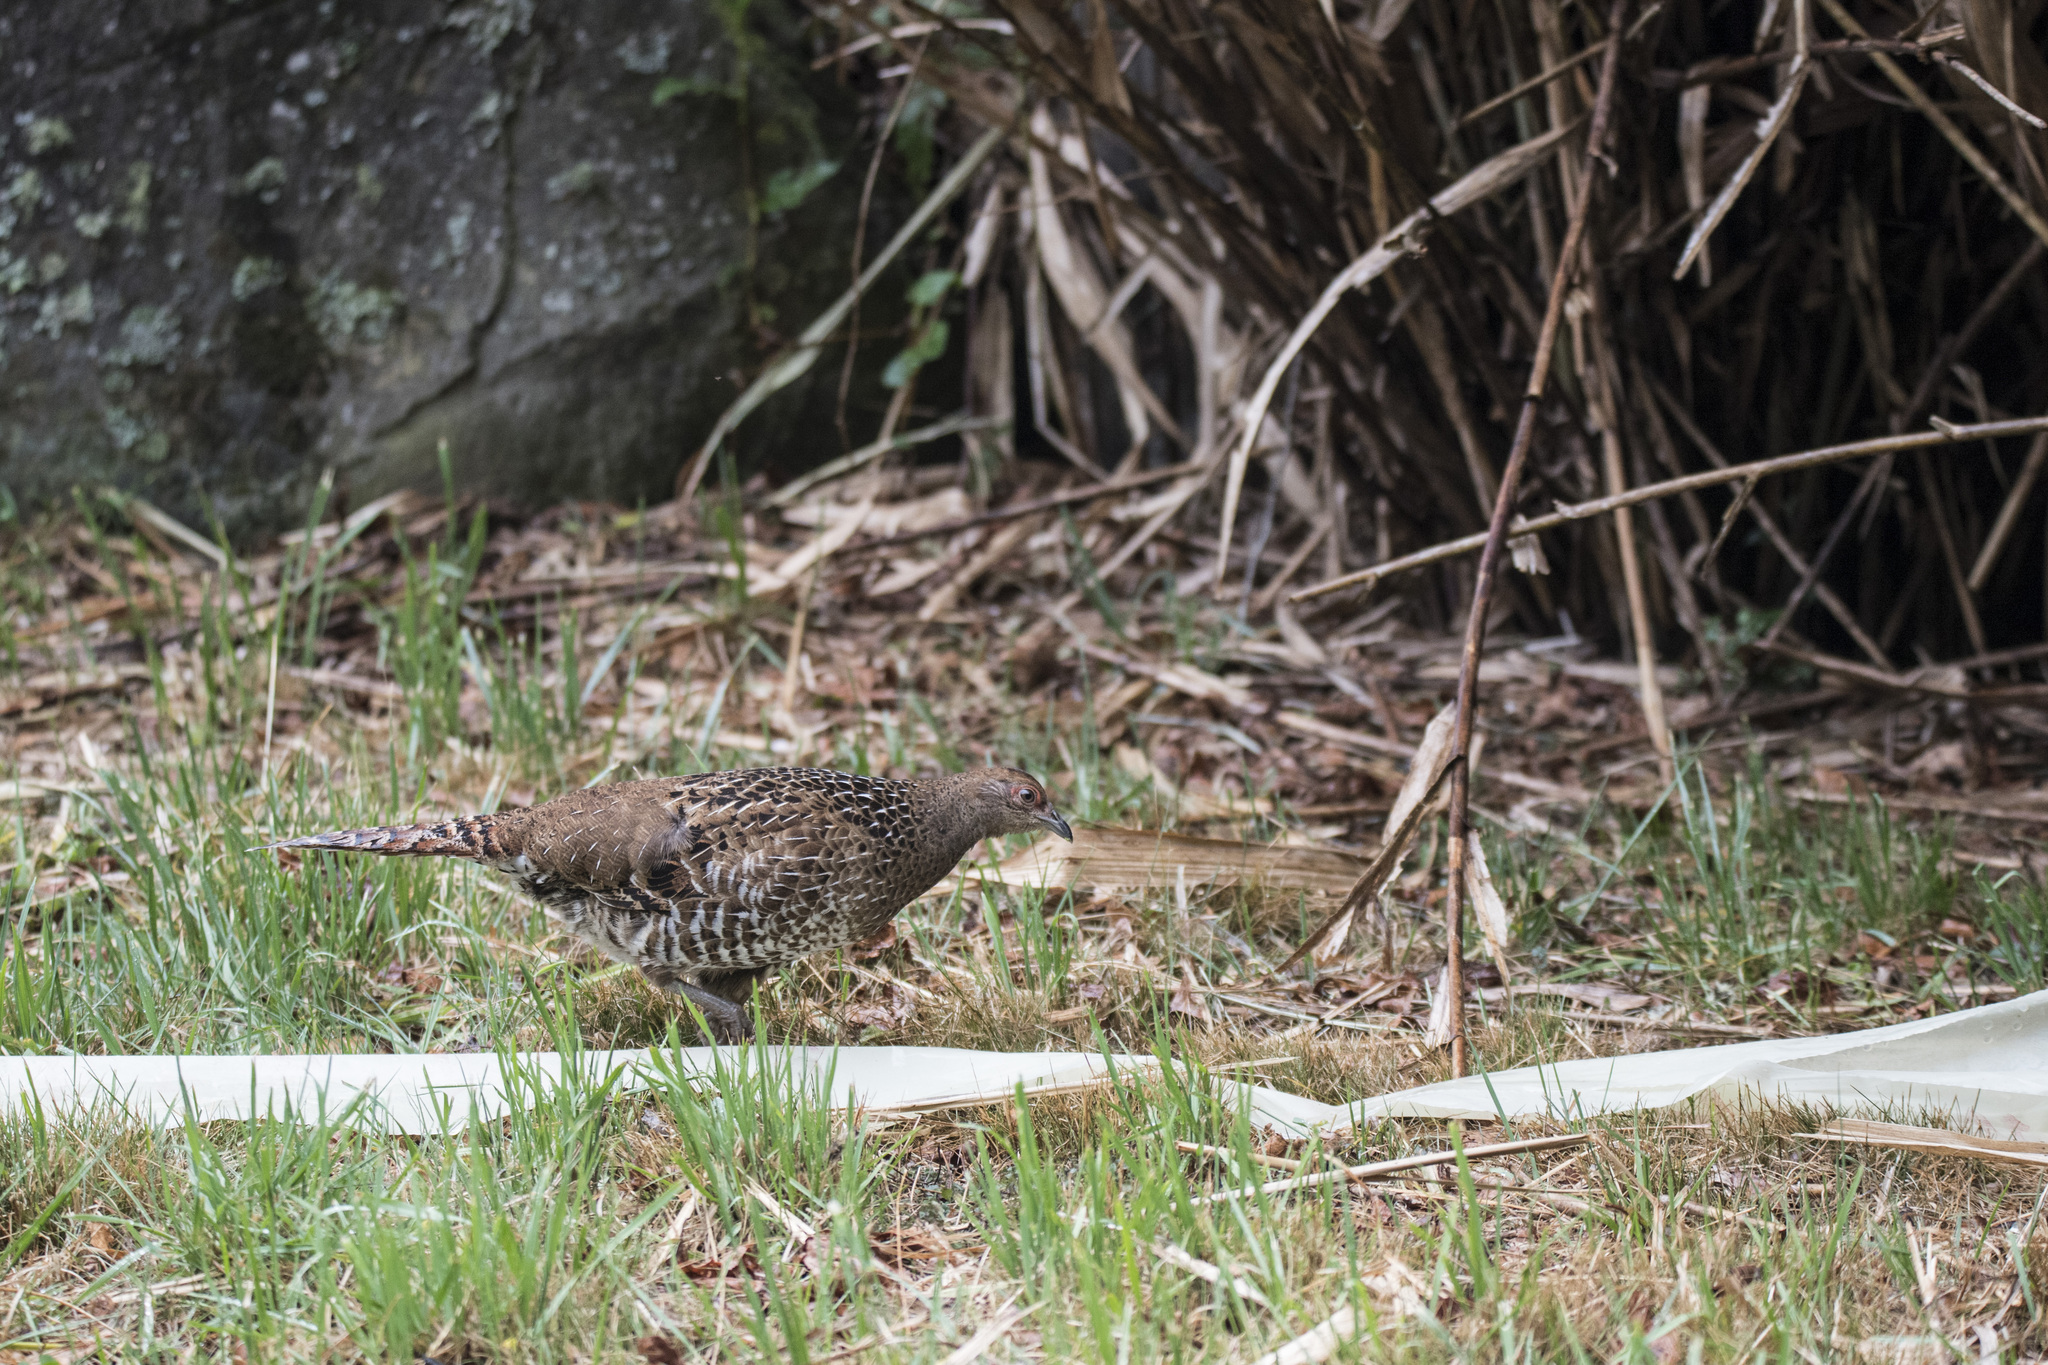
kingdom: Animalia
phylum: Chordata
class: Aves
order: Galliformes
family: Phasianidae
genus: Syrmaticus
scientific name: Syrmaticus mikado
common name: Mikado pheasant
